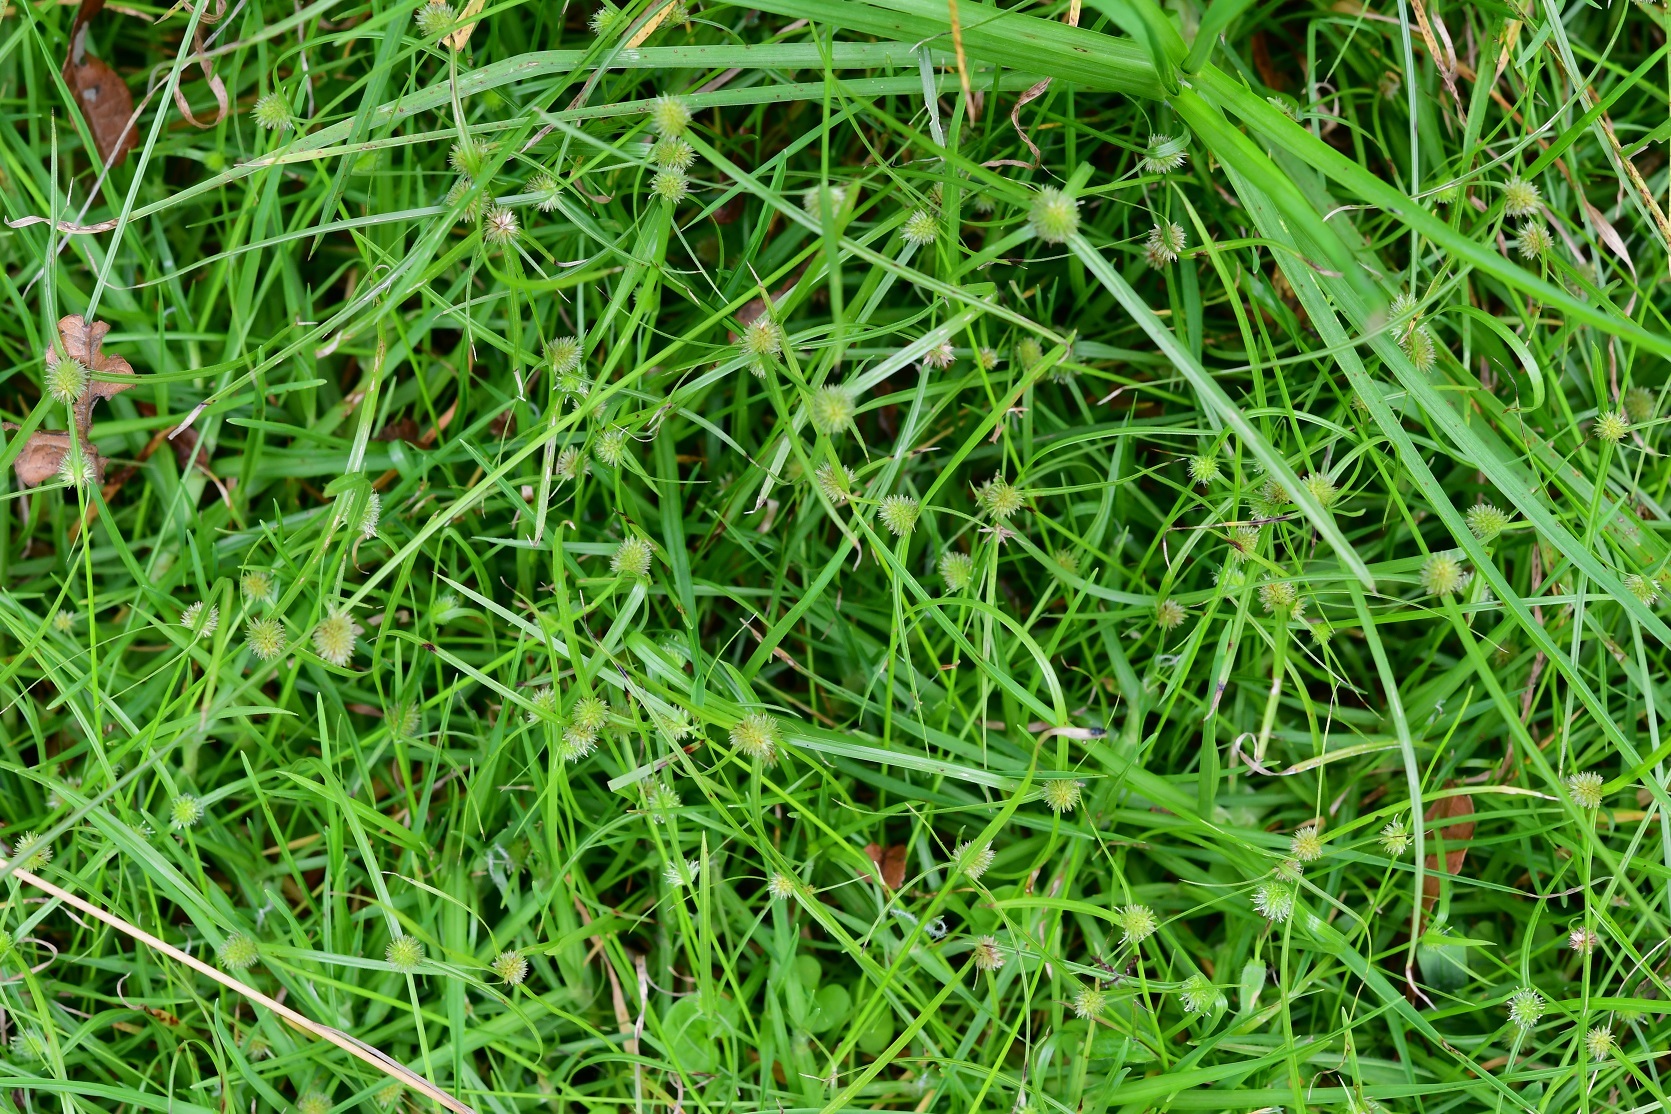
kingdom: Plantae
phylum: Tracheophyta
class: Liliopsida
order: Poales
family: Cyperaceae
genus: Cyperus
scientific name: Cyperus brevifolius
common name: Globe kyllinga
